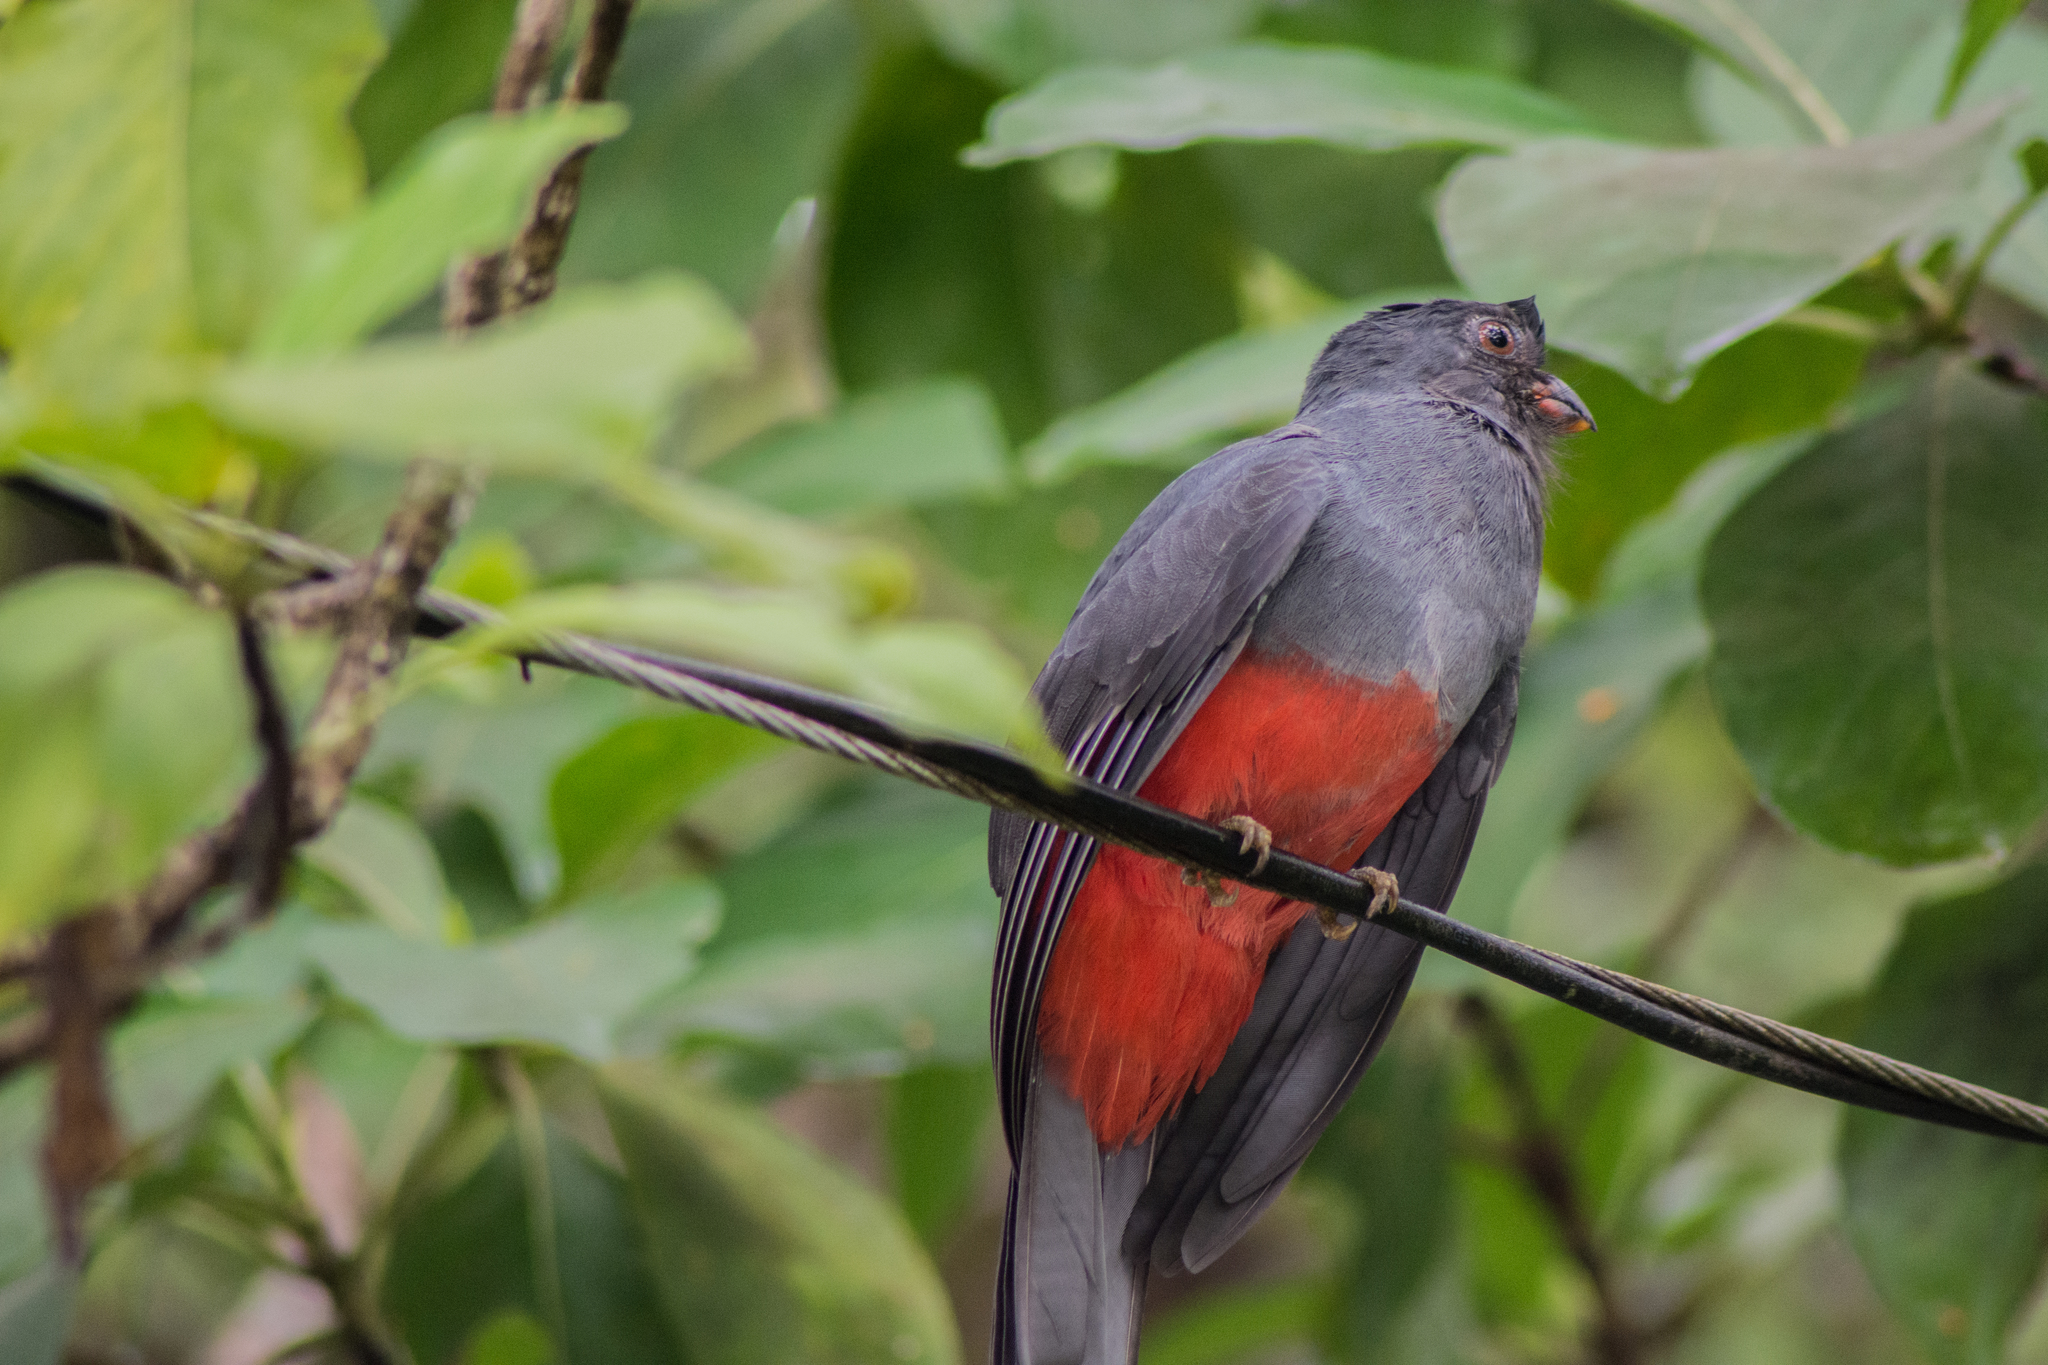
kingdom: Animalia
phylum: Chordata
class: Aves
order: Trogoniformes
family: Trogonidae
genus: Trogon
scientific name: Trogon massena
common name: Slaty-tailed trogon
